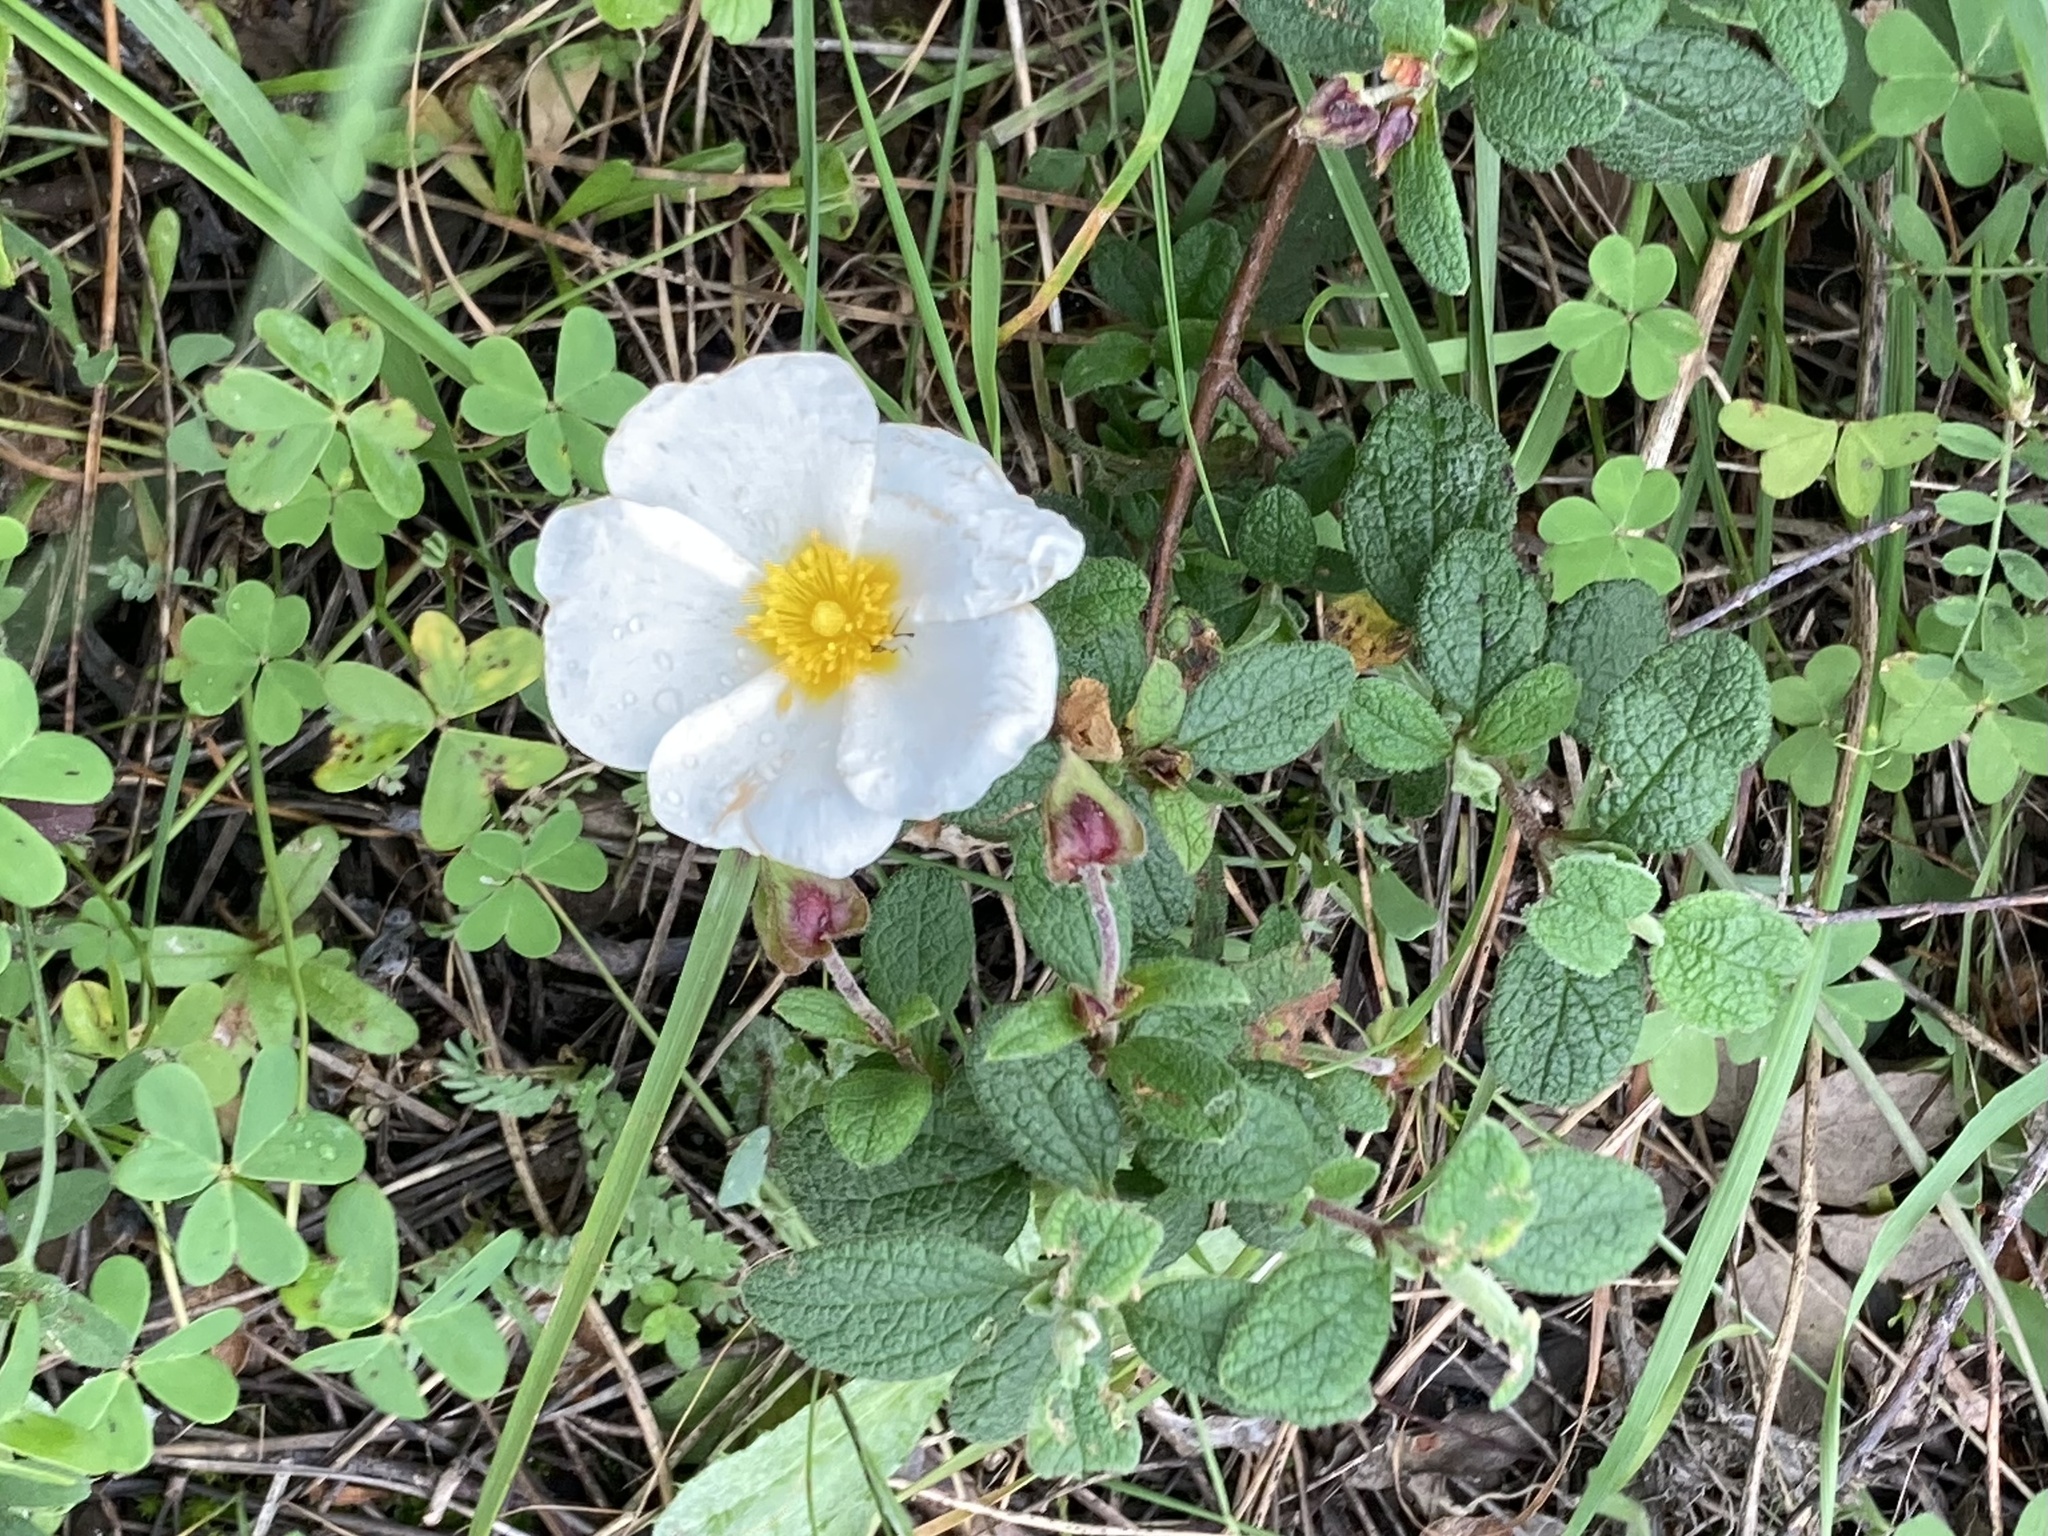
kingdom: Plantae
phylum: Tracheophyta
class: Magnoliopsida
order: Malvales
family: Cistaceae
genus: Cistus
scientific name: Cistus salviifolius
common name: Salvia cistus
